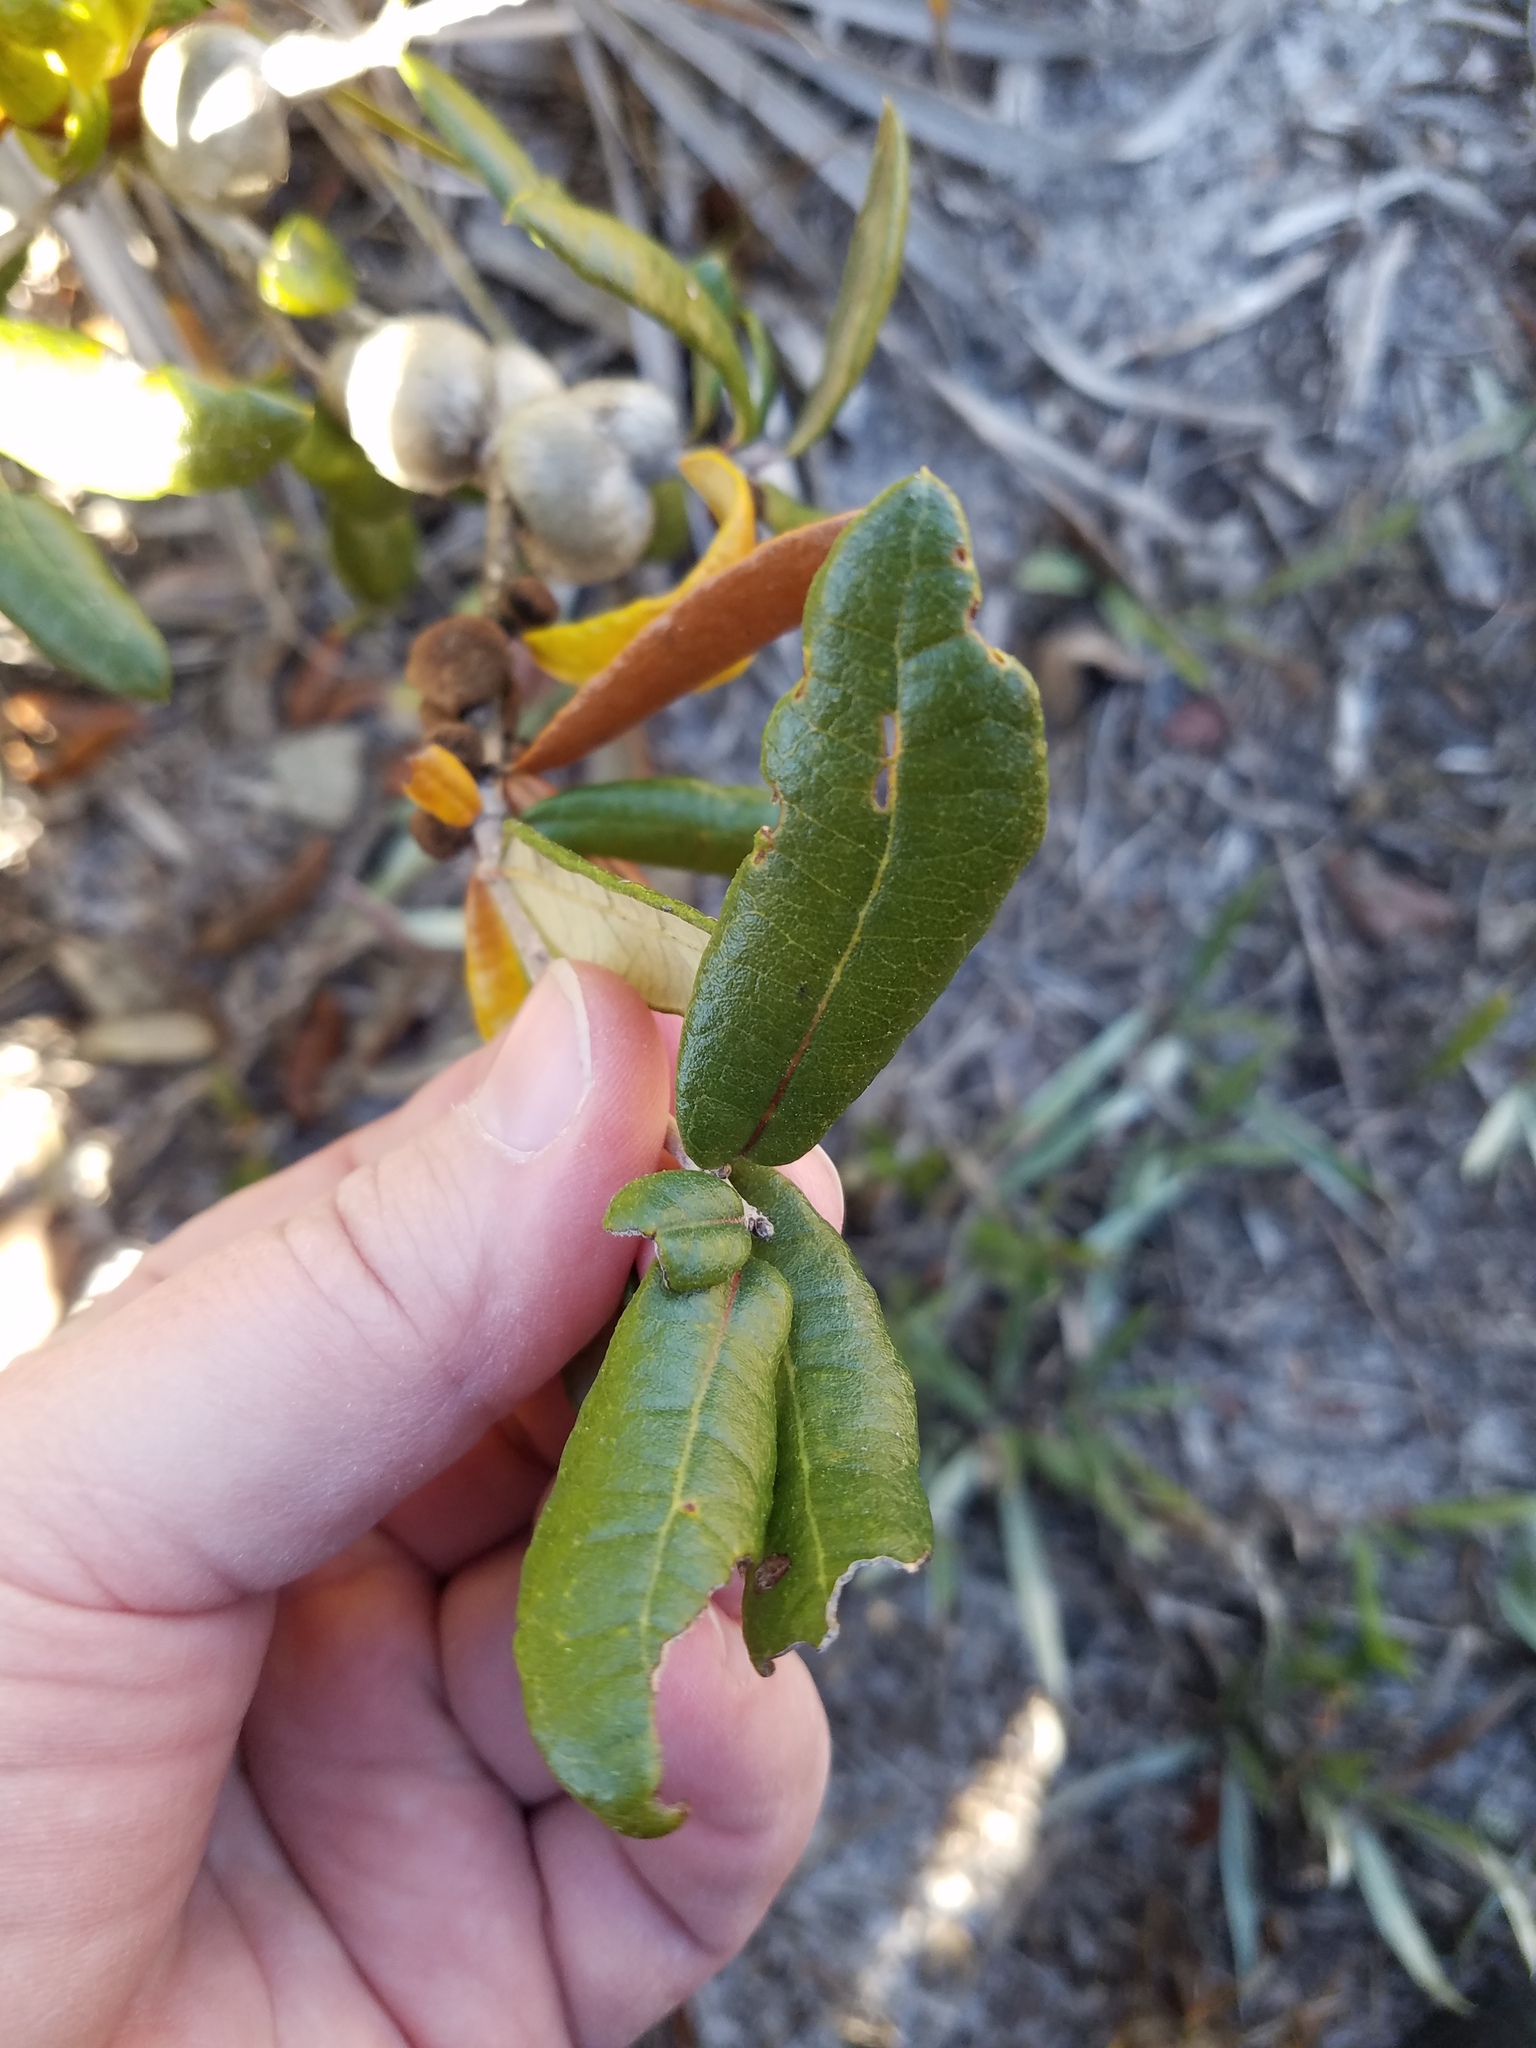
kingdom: Plantae
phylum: Tracheophyta
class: Magnoliopsida
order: Fagales
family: Fagaceae
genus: Quercus
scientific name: Quercus geminata
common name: Sand live oak
